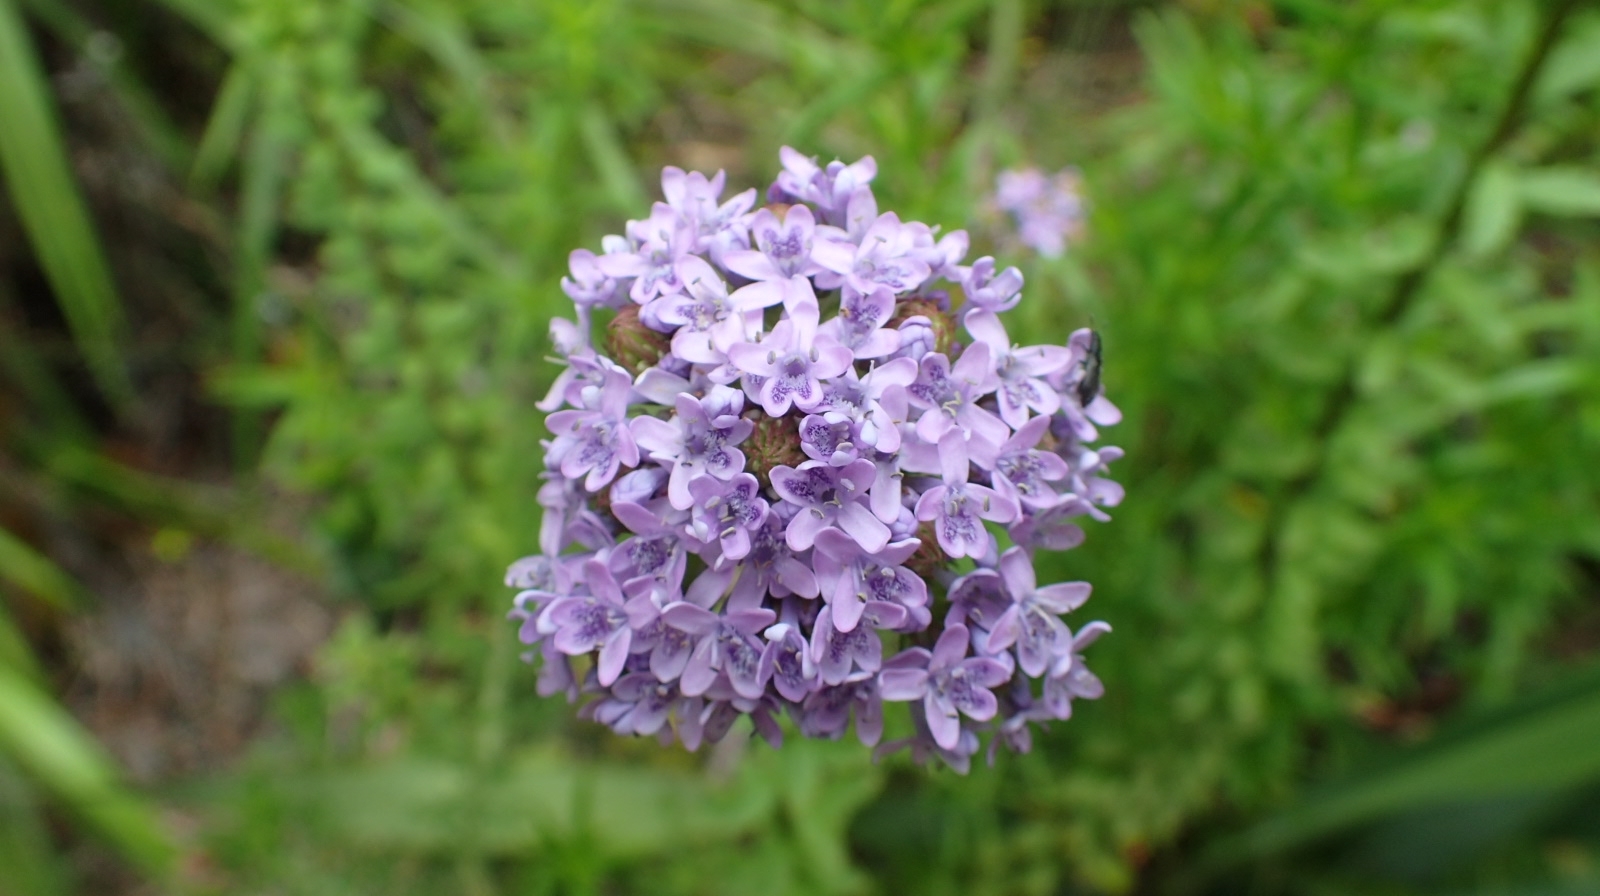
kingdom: Plantae
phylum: Tracheophyta
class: Magnoliopsida
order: Lamiales
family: Scrophulariaceae
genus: Pseudoselago
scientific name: Pseudoselago langebergensis
